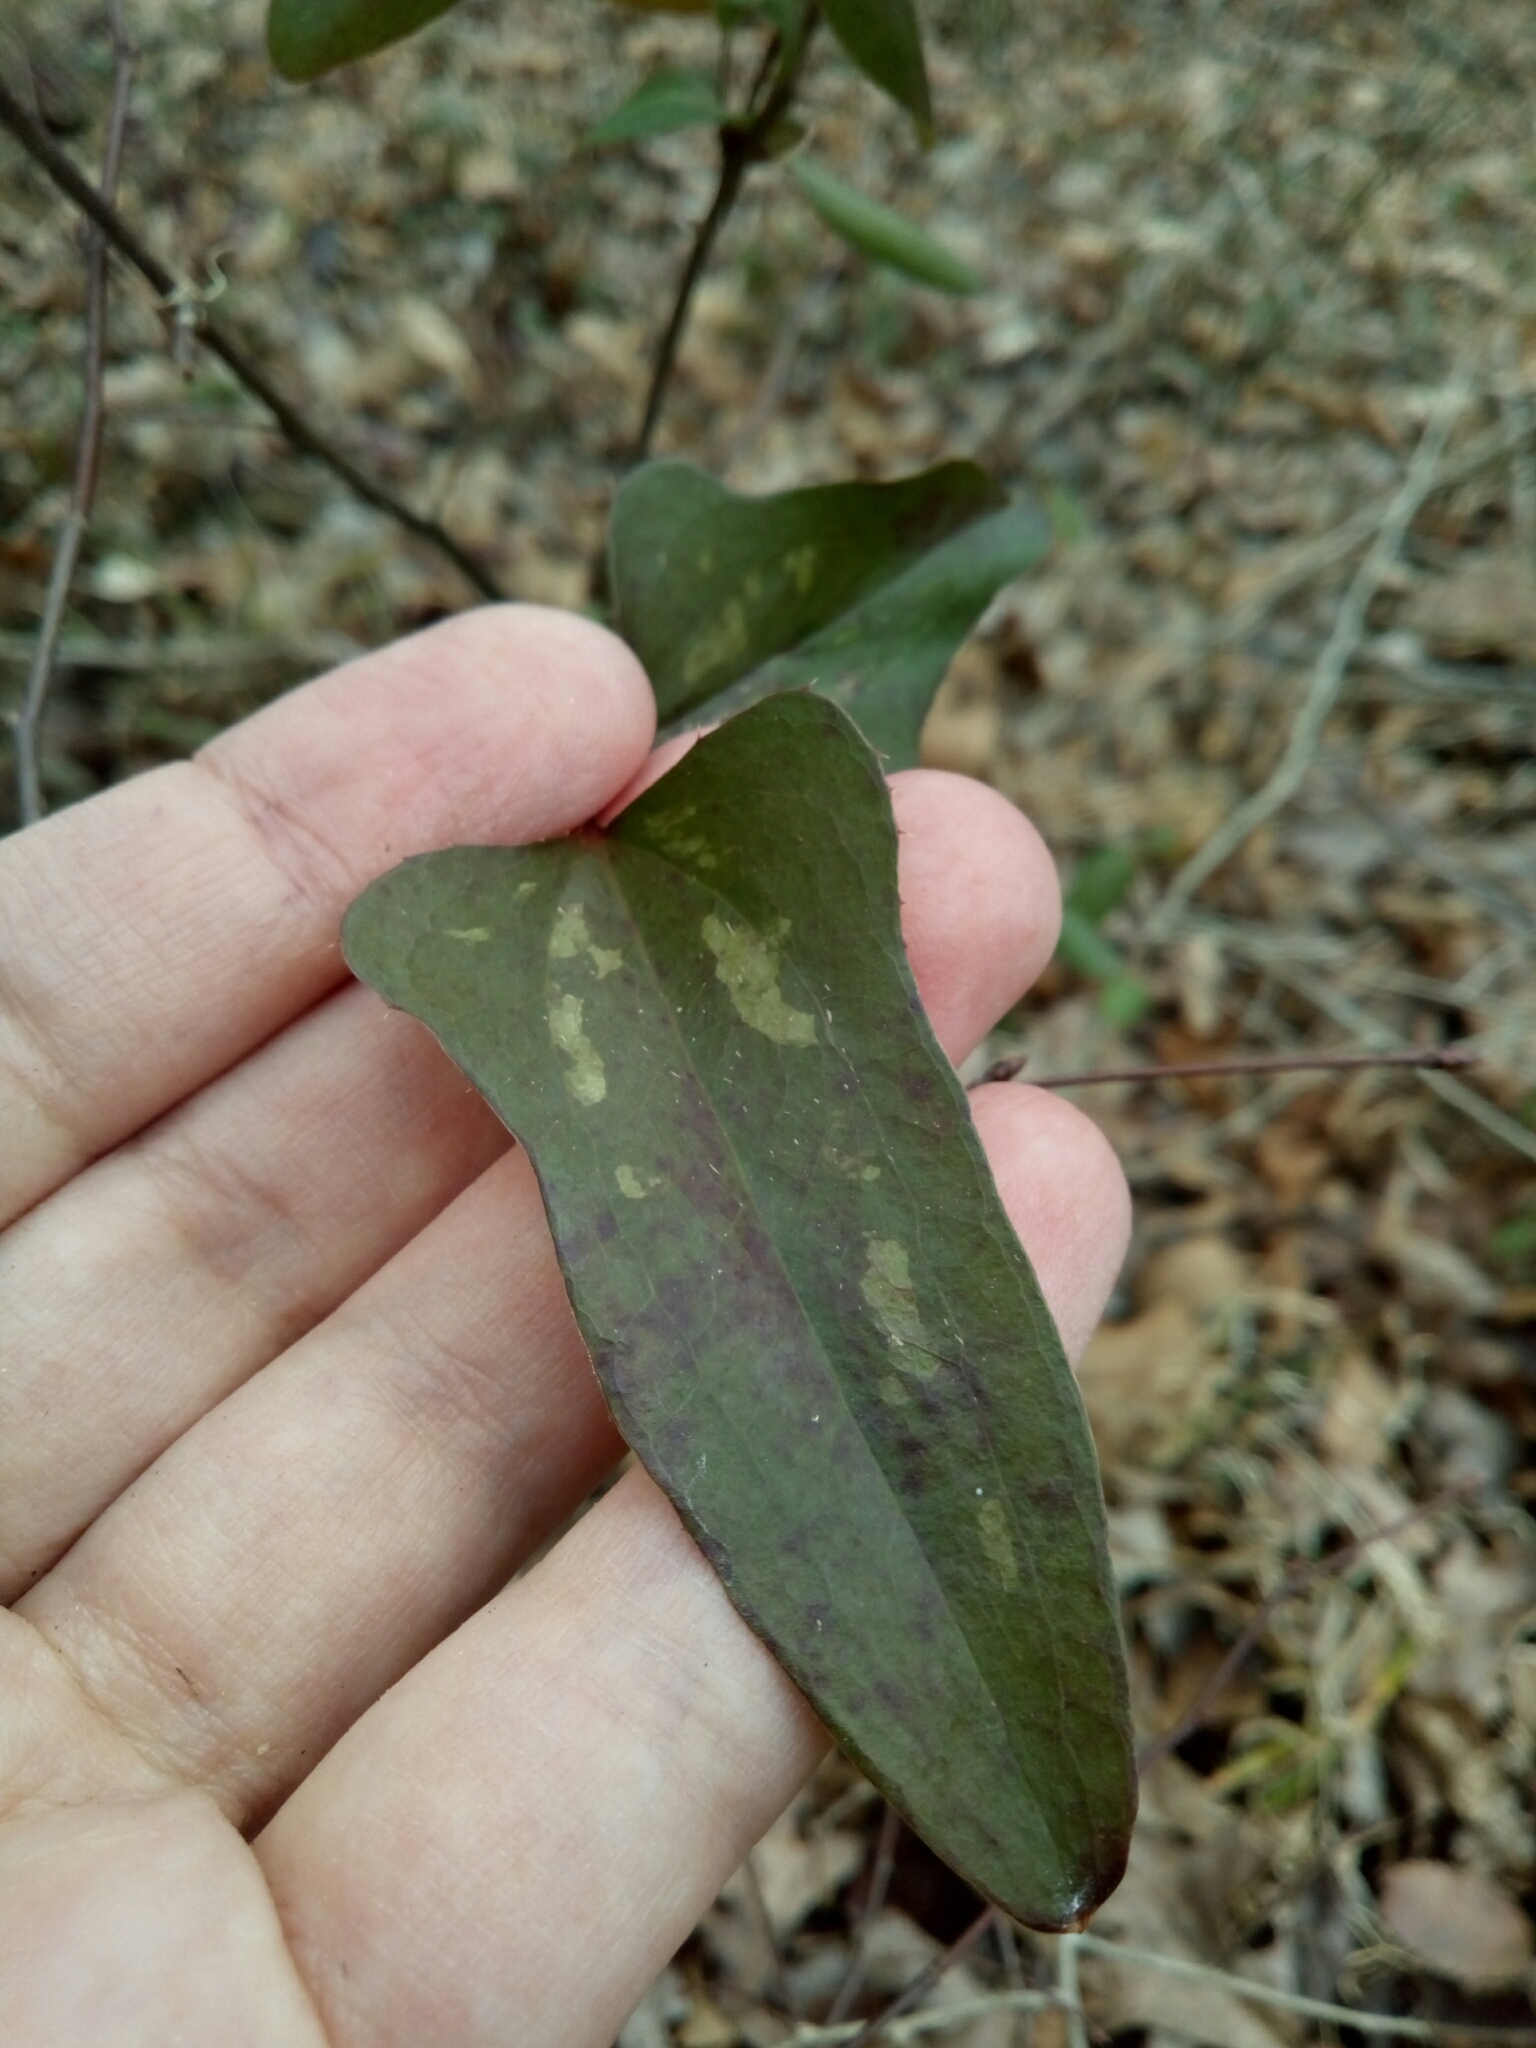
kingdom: Plantae
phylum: Tracheophyta
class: Liliopsida
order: Liliales
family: Smilacaceae
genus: Smilax
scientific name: Smilax bona-nox
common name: Catbrier
